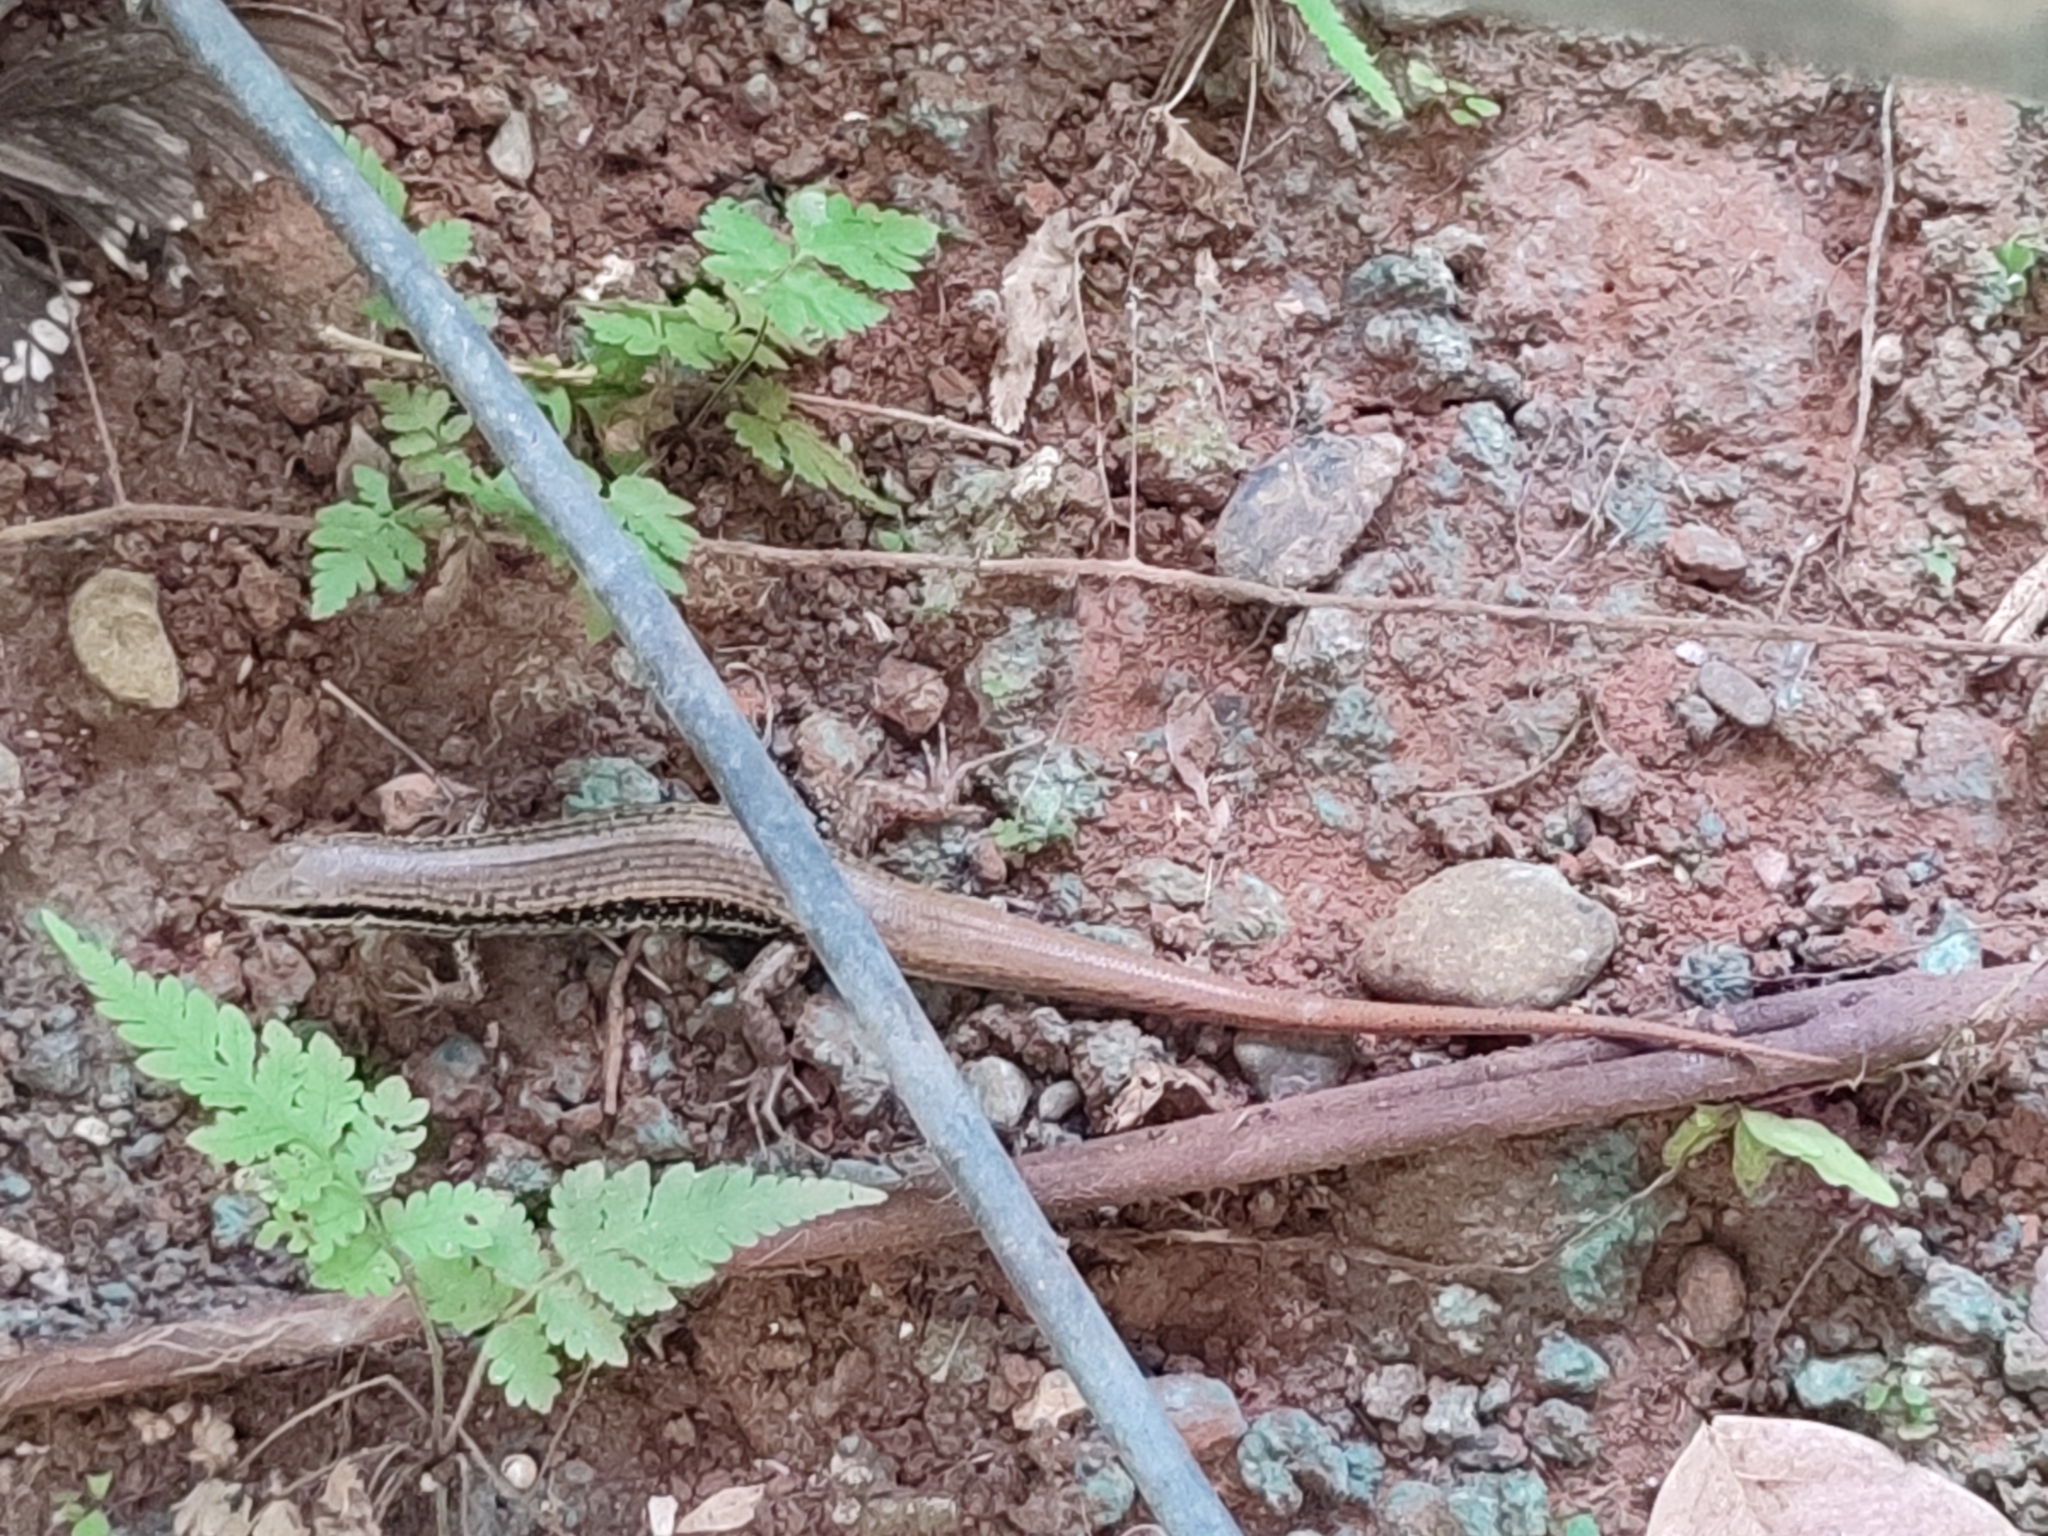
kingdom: Animalia
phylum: Chordata
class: Squamata
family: Scincidae
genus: Eutropis
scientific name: Eutropis longicaudata
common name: Long-tailed sun skink
